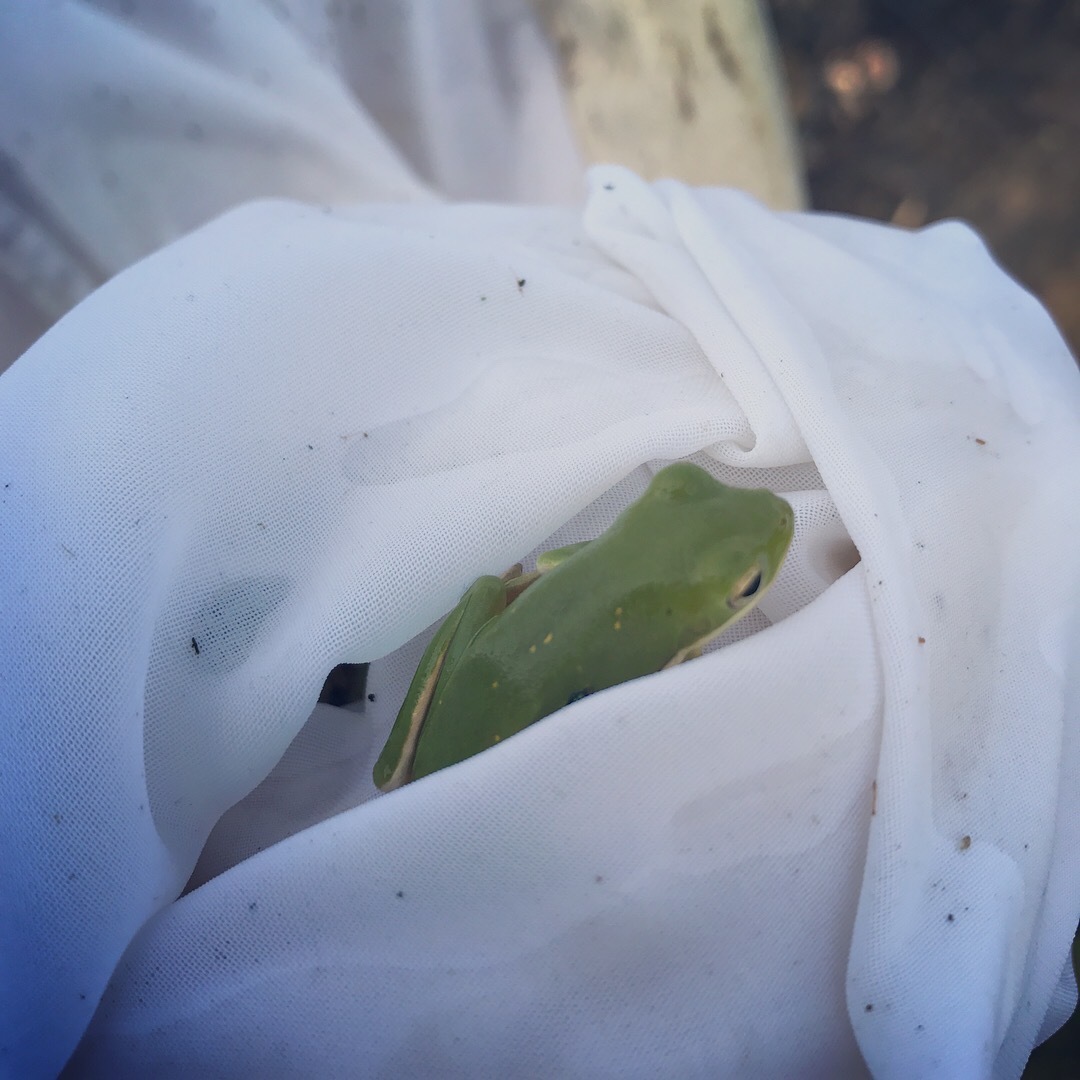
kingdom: Animalia
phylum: Chordata
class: Amphibia
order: Anura
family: Hylidae
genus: Dryophytes
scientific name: Dryophytes cinereus
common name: Green treefrog
